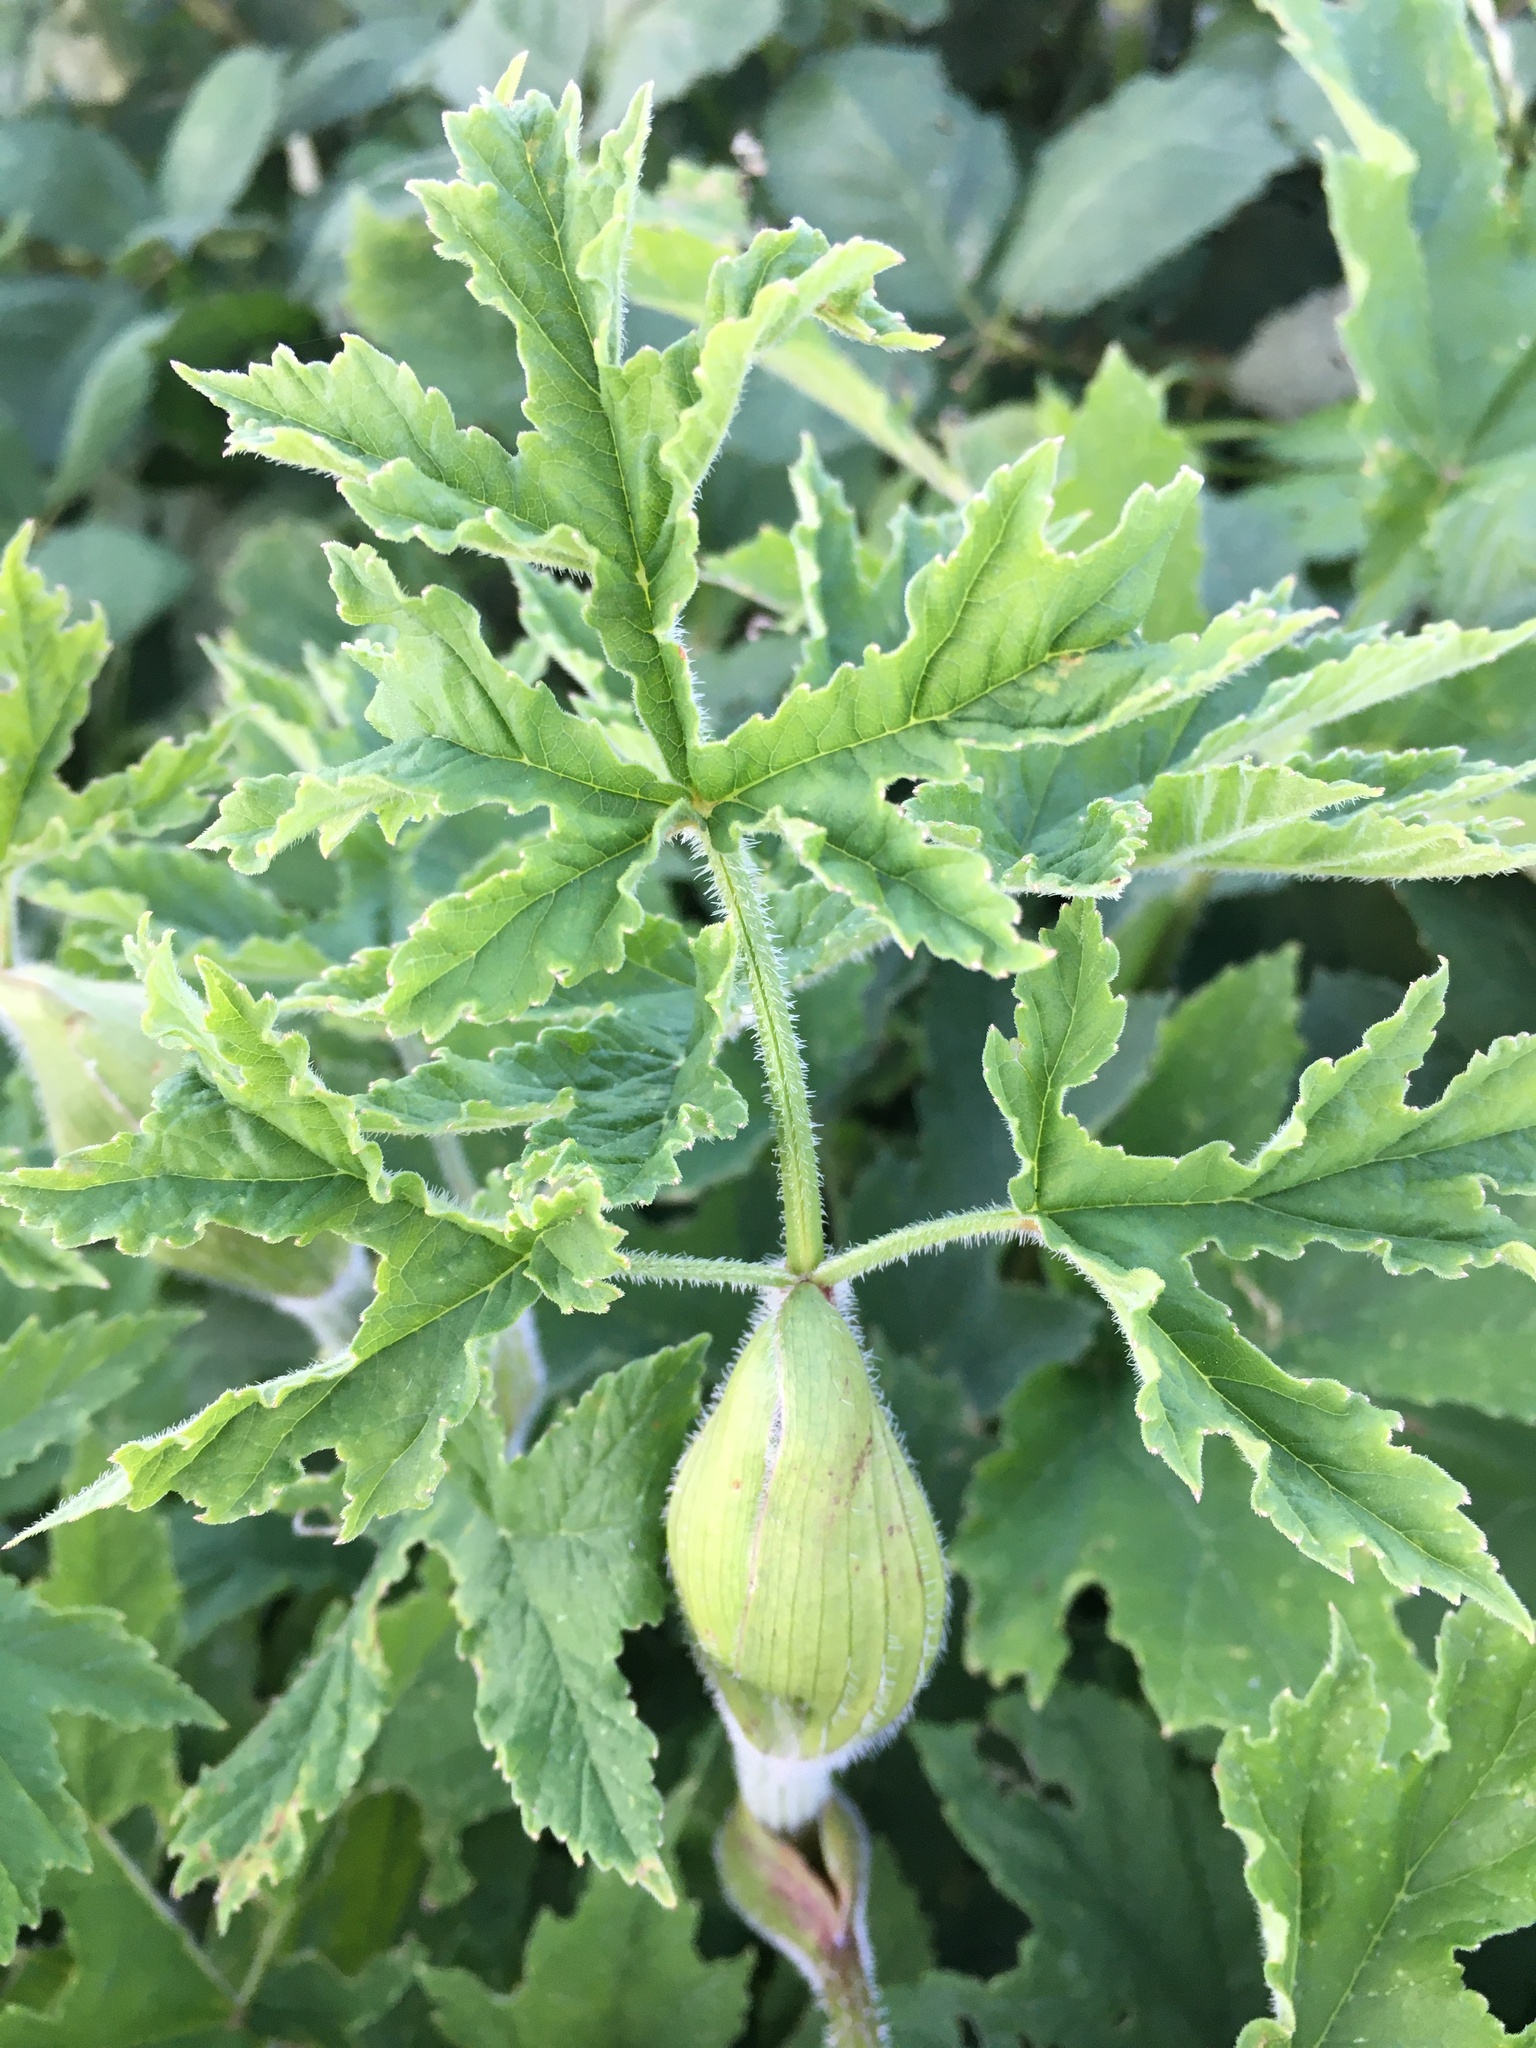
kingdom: Plantae
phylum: Tracheophyta
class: Magnoliopsida
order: Apiales
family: Apiaceae
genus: Heracleum
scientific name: Heracleum sphondylium
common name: Hogweed
